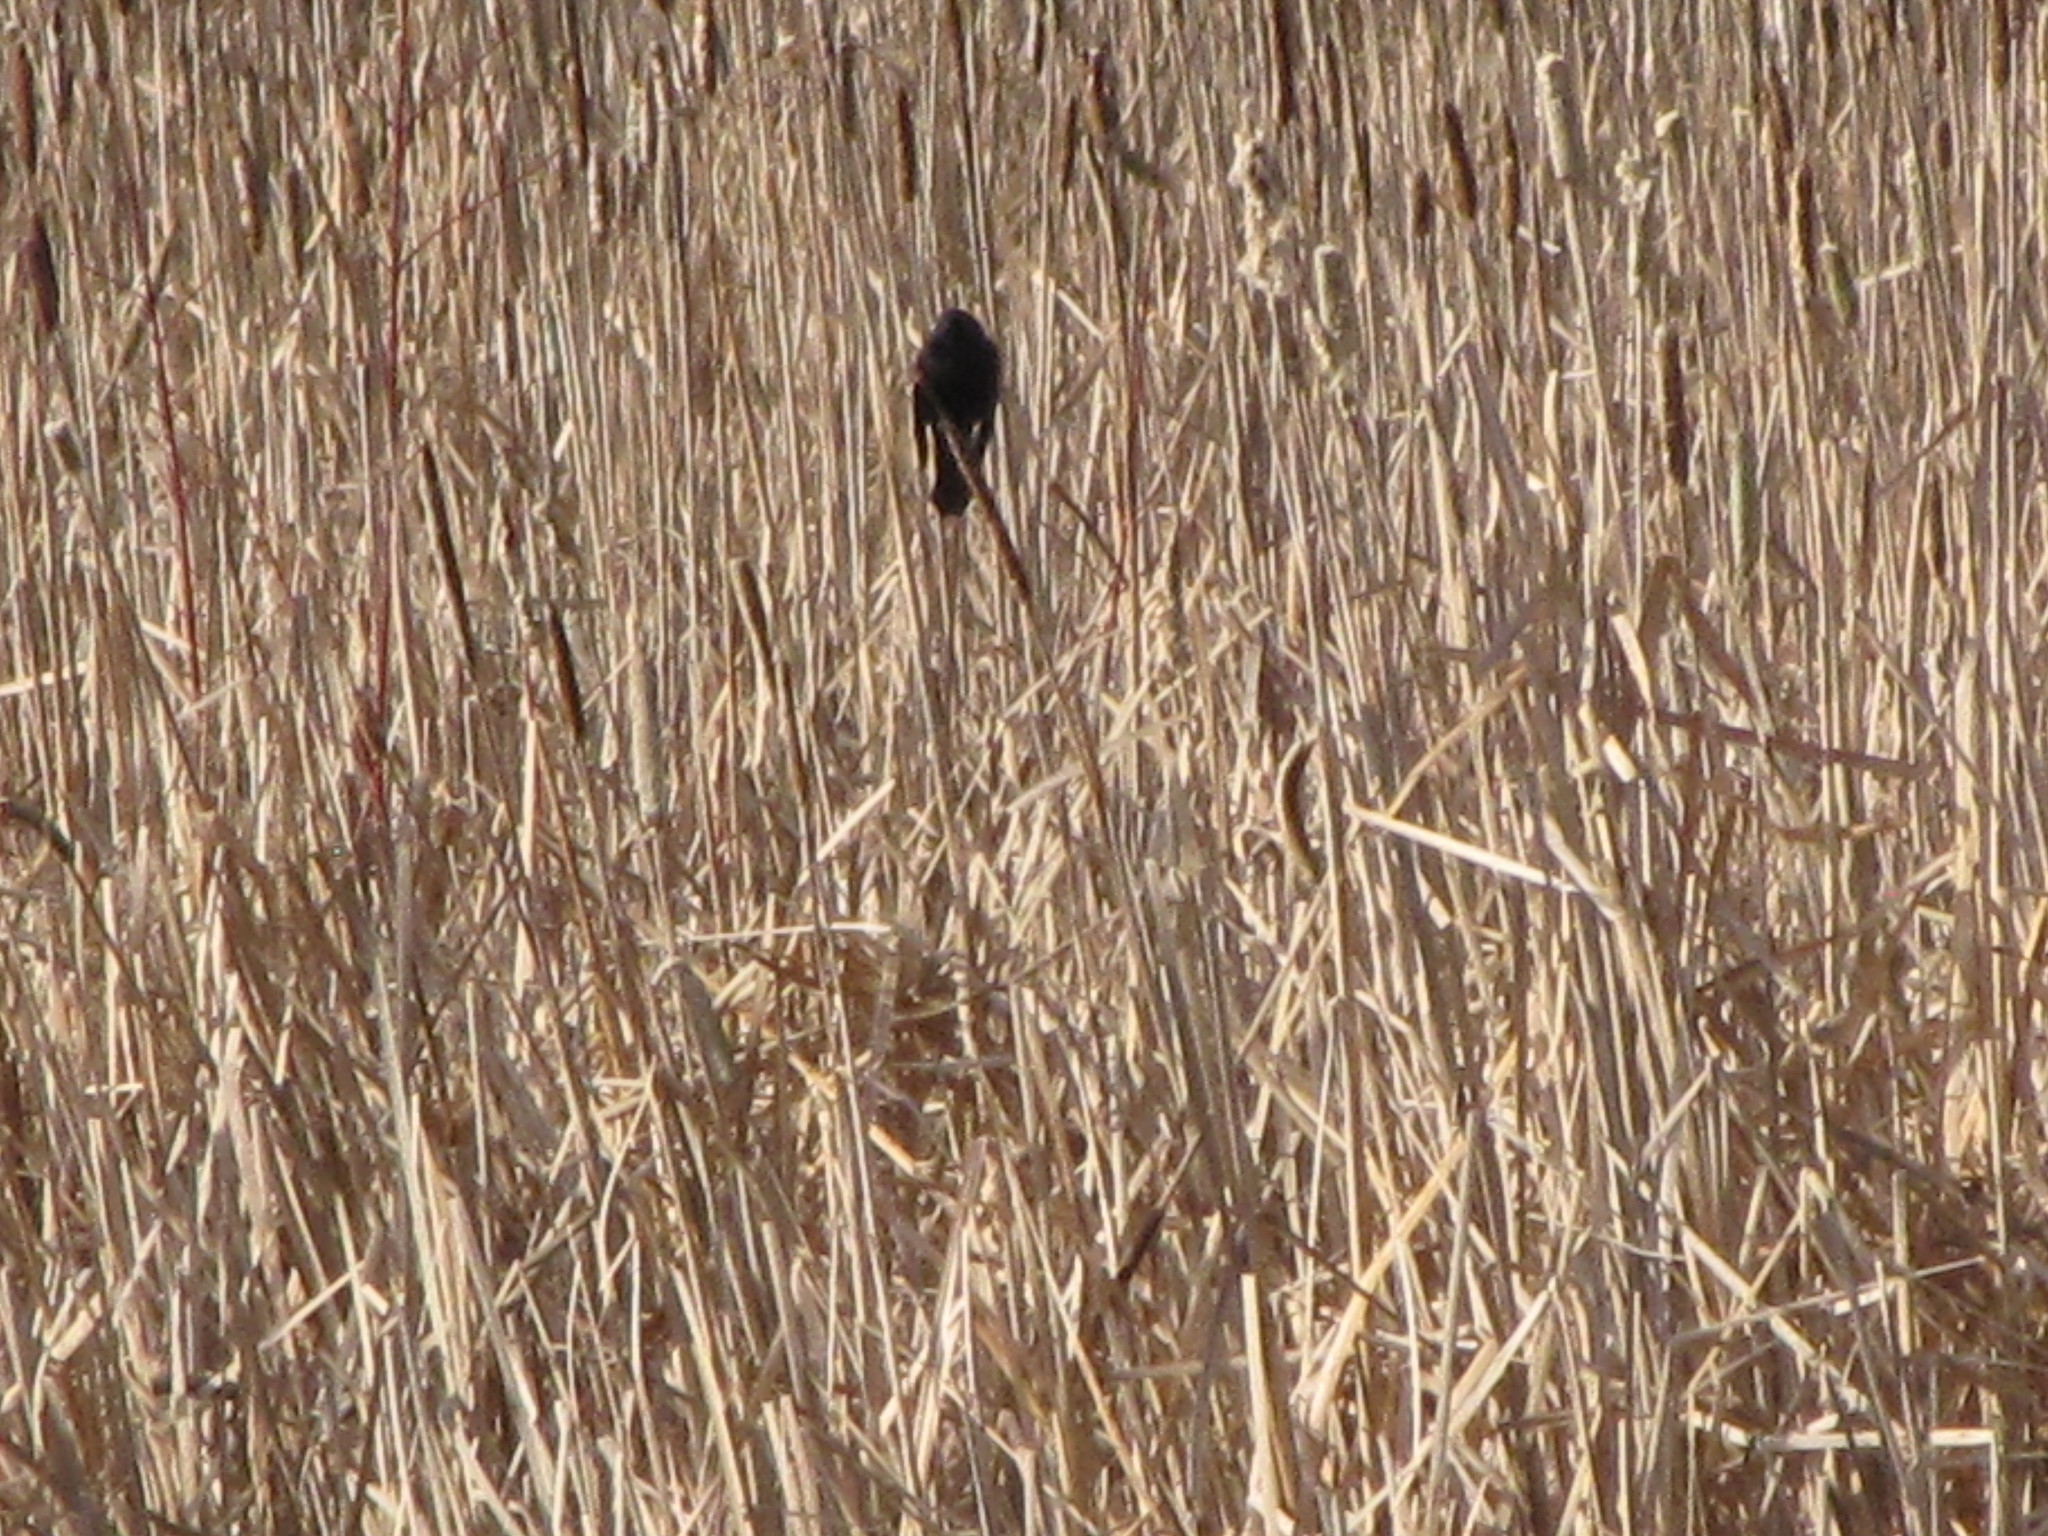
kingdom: Animalia
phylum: Chordata
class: Aves
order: Passeriformes
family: Icteridae
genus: Agelaius
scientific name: Agelaius phoeniceus
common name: Red-winged blackbird
